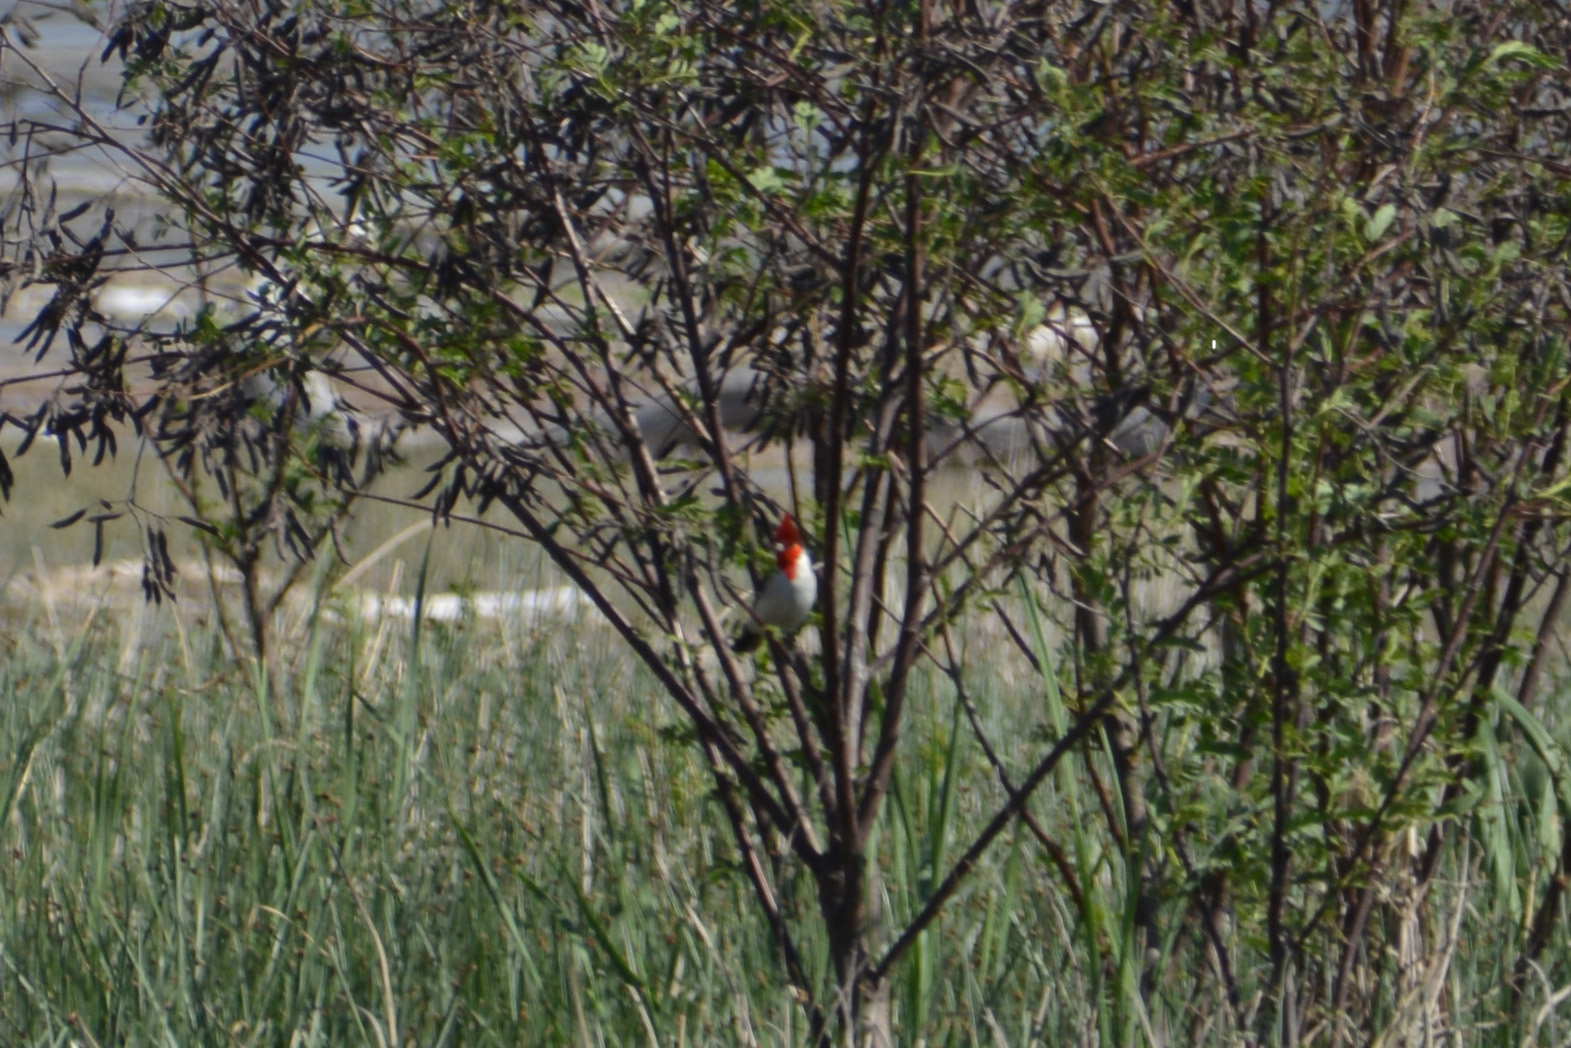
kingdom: Animalia
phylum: Chordata
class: Aves
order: Passeriformes
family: Thraupidae
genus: Paroaria
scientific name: Paroaria coronata
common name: Red-crested cardinal
